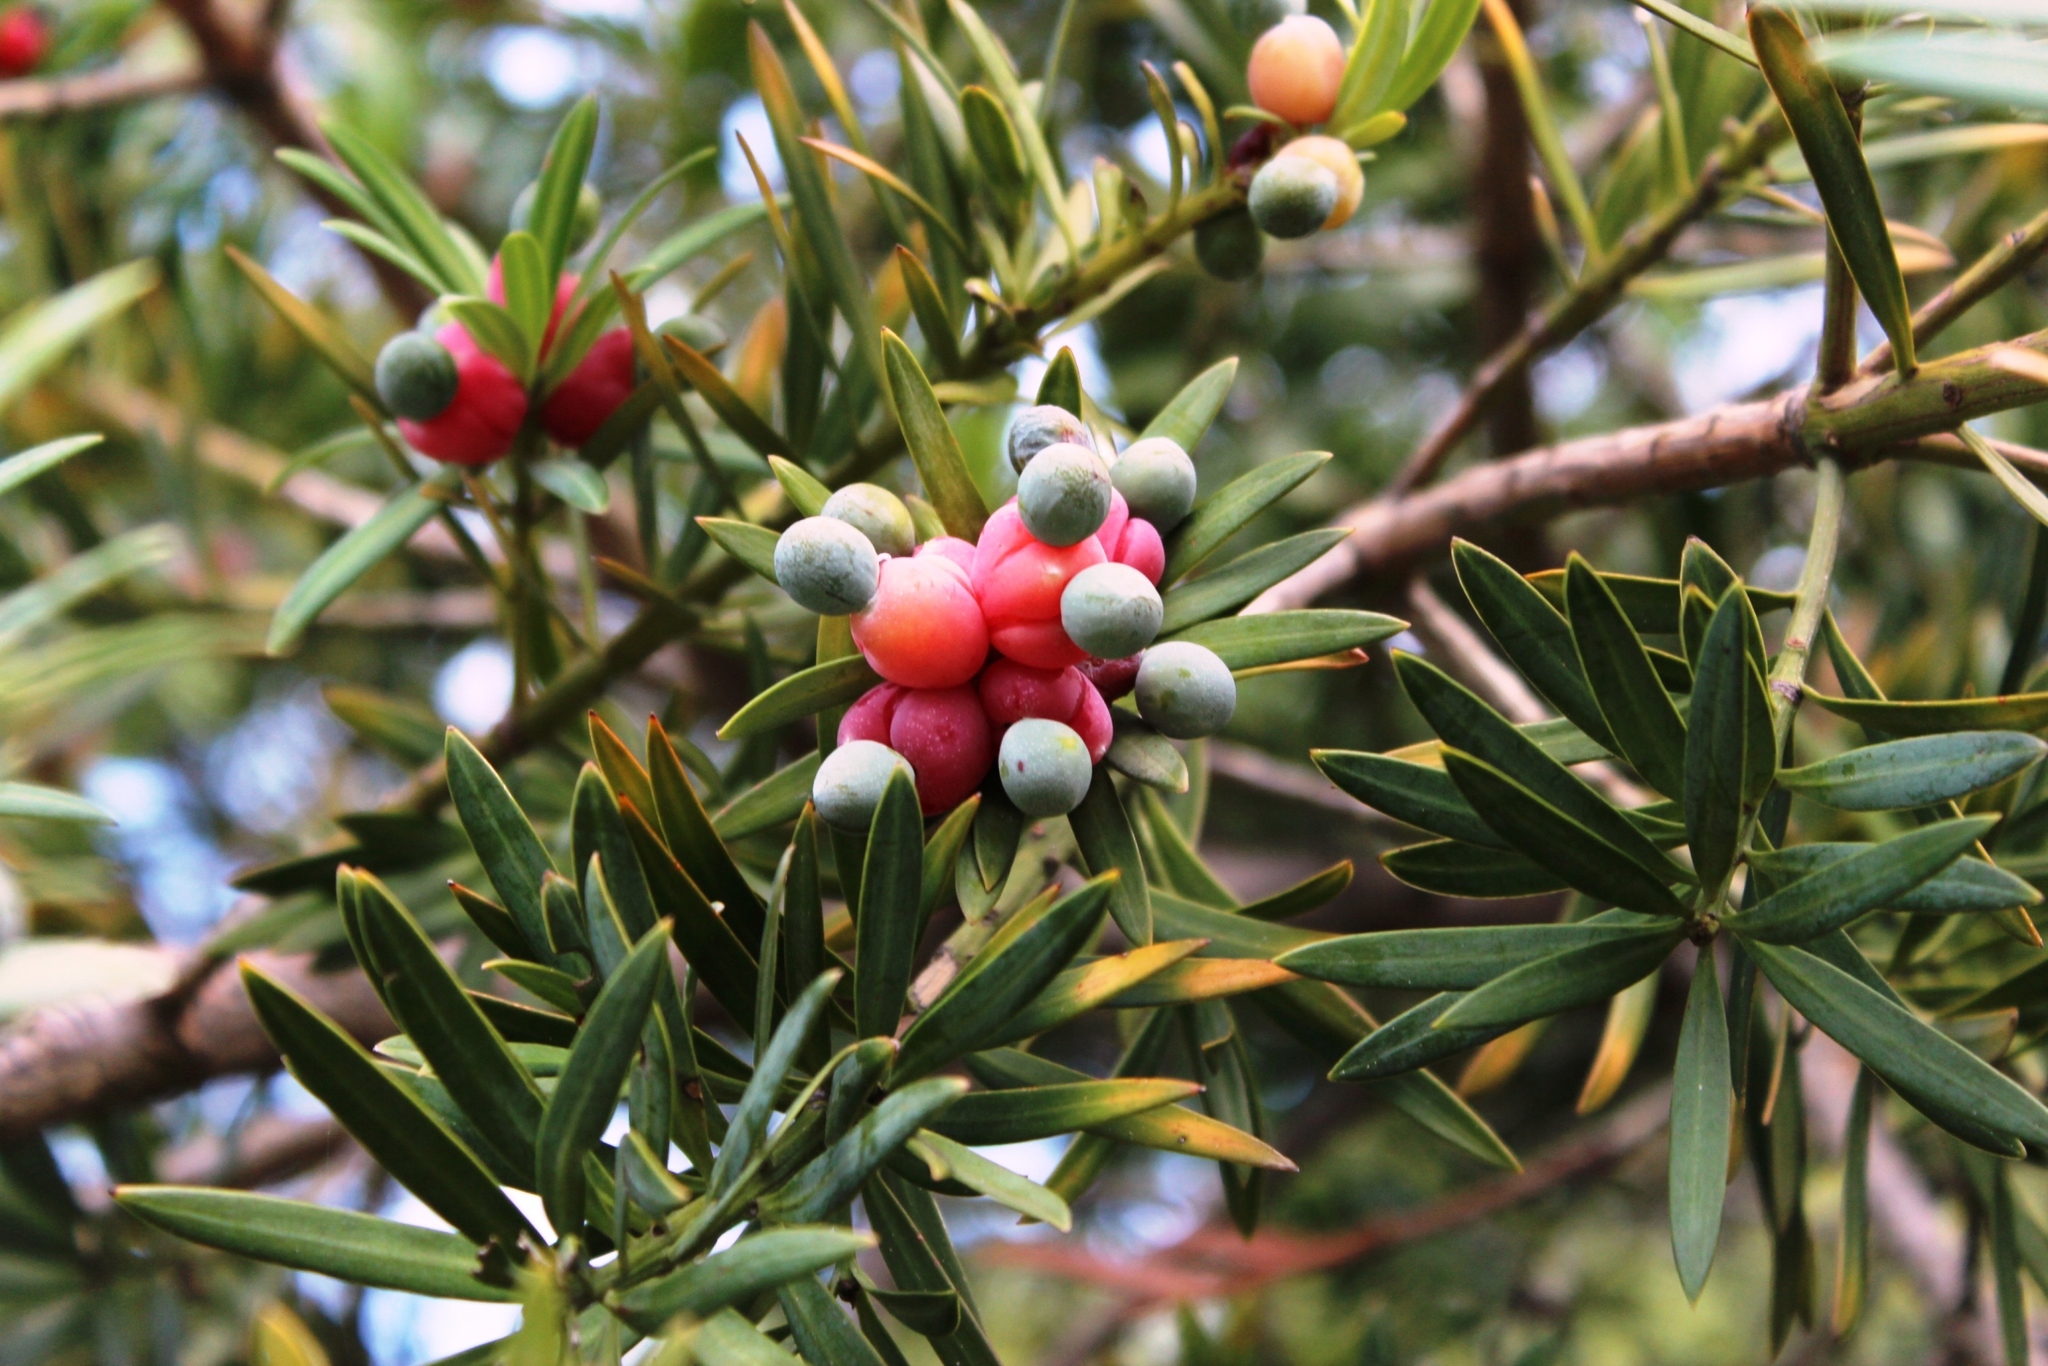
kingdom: Plantae
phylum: Tracheophyta
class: Pinopsida
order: Pinales
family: Podocarpaceae
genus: Podocarpus
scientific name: Podocarpus elongatus
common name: Breede river yellowwood
